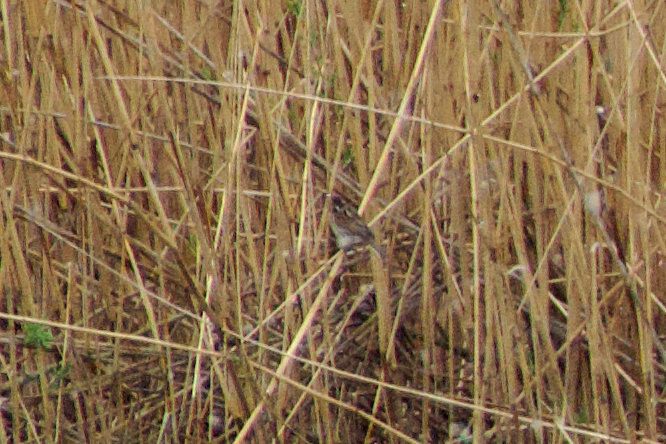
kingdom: Animalia
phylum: Chordata
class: Aves
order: Passeriformes
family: Emberizidae
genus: Emberiza
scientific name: Emberiza schoeniclus
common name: Reed bunting
